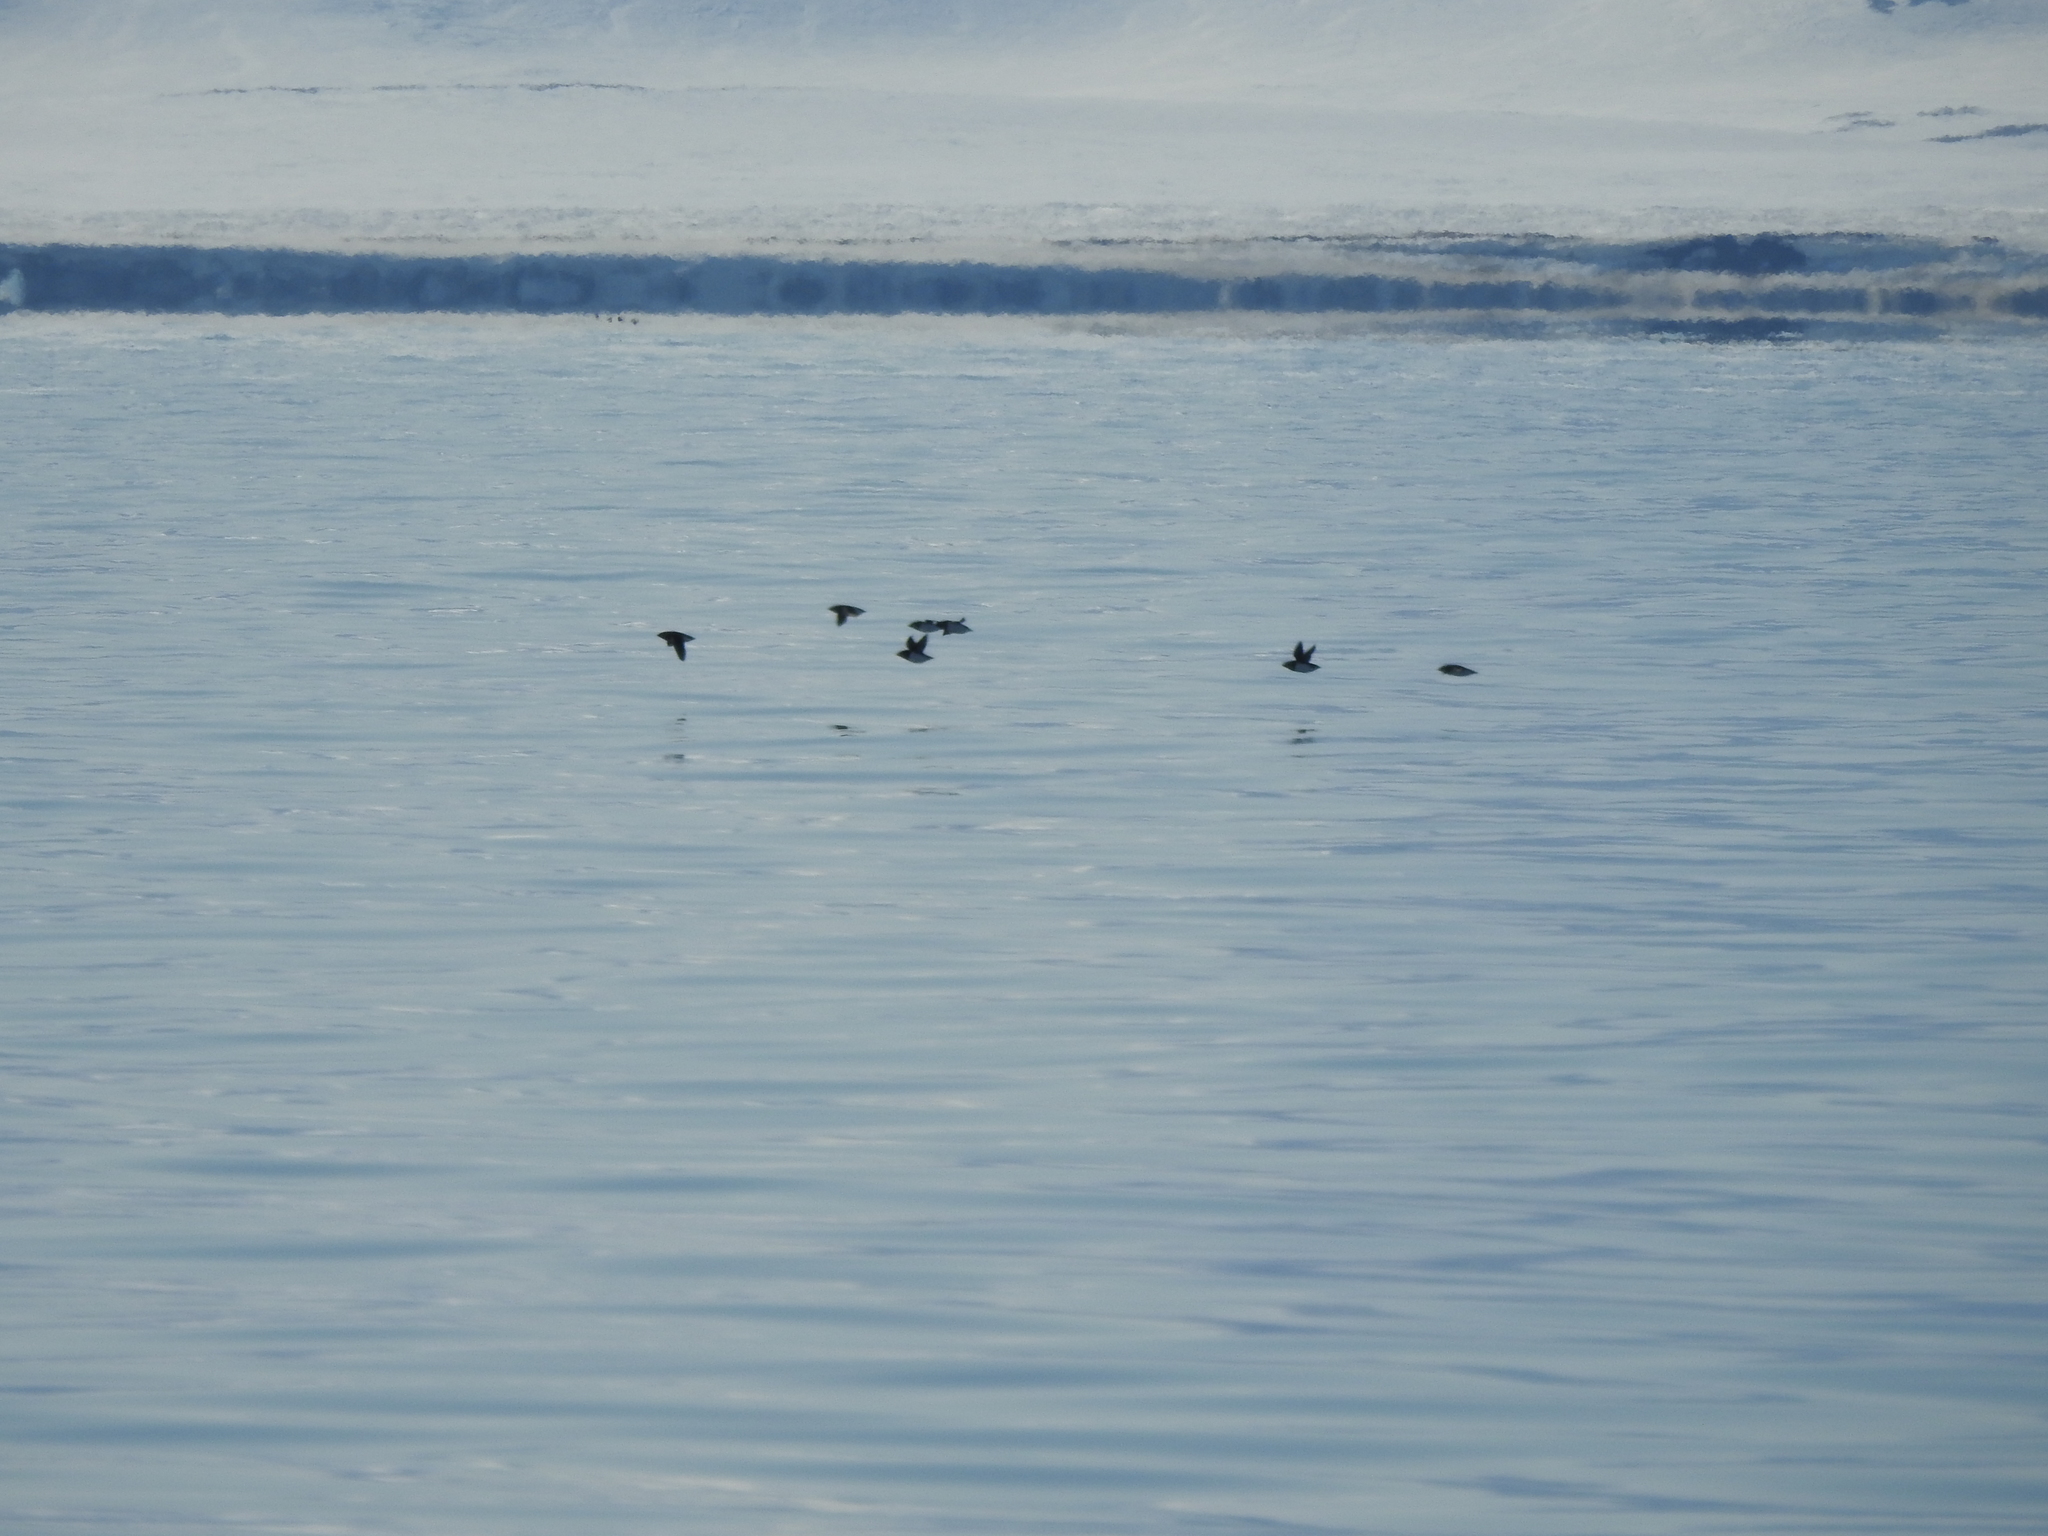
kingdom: Animalia
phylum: Chordata
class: Aves
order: Charadriiformes
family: Alcidae
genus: Alle
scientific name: Alle alle
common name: Little auk
